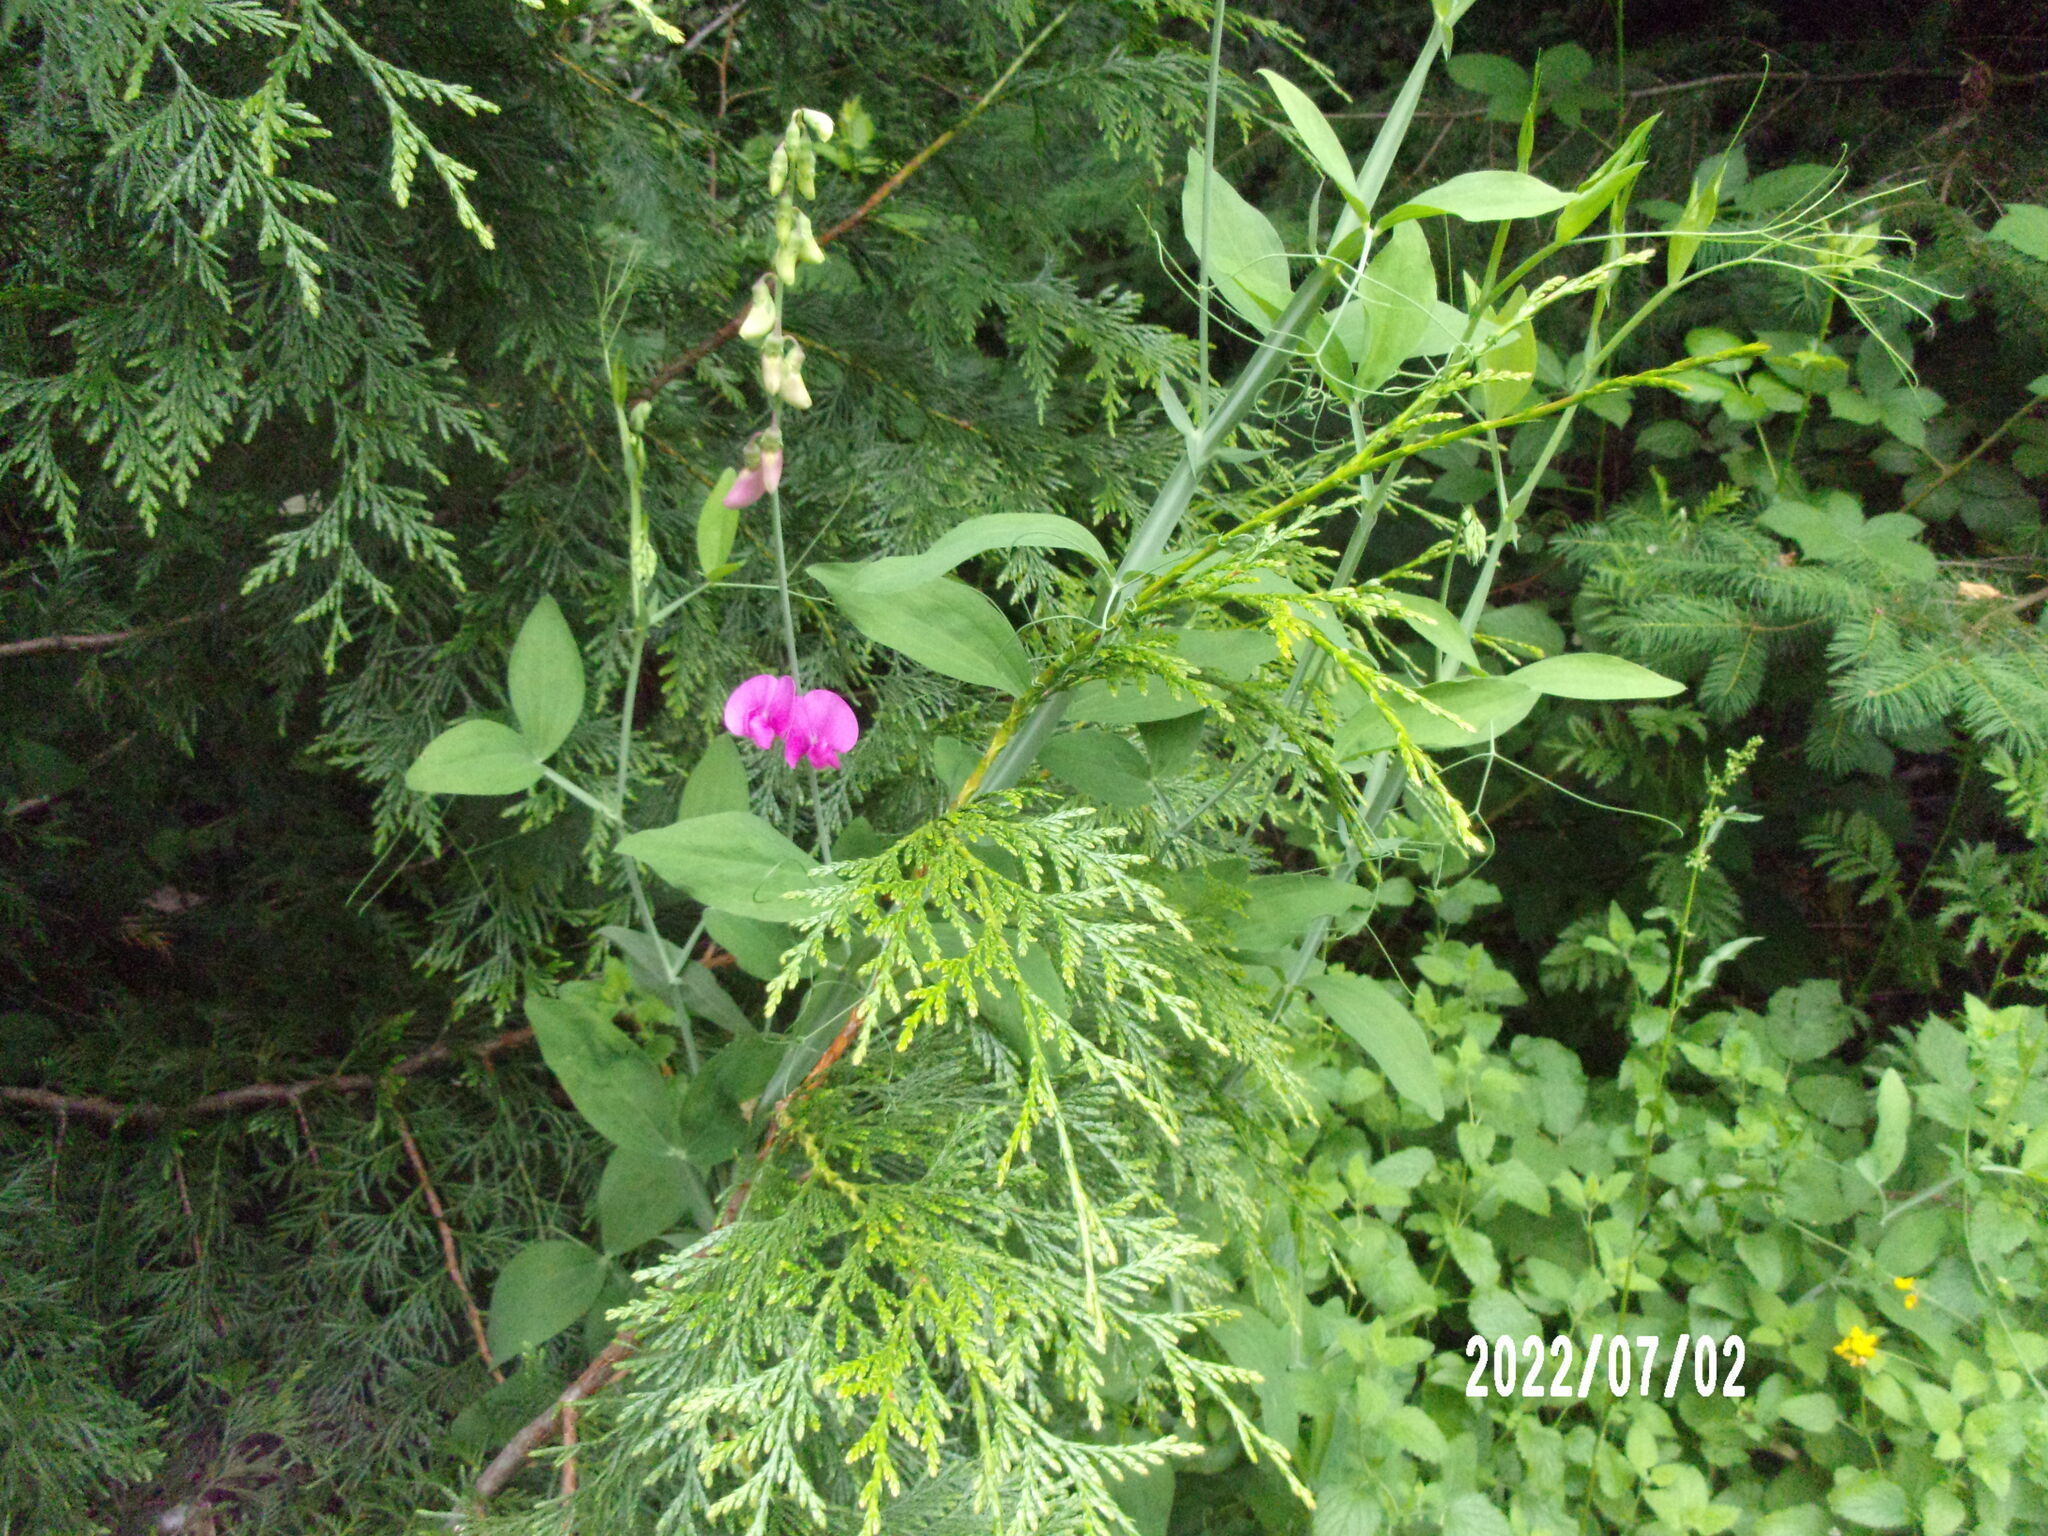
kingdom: Plantae
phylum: Tracheophyta
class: Magnoliopsida
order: Fabales
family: Fabaceae
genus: Lathyrus
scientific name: Lathyrus latifolius
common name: Perennial pea
